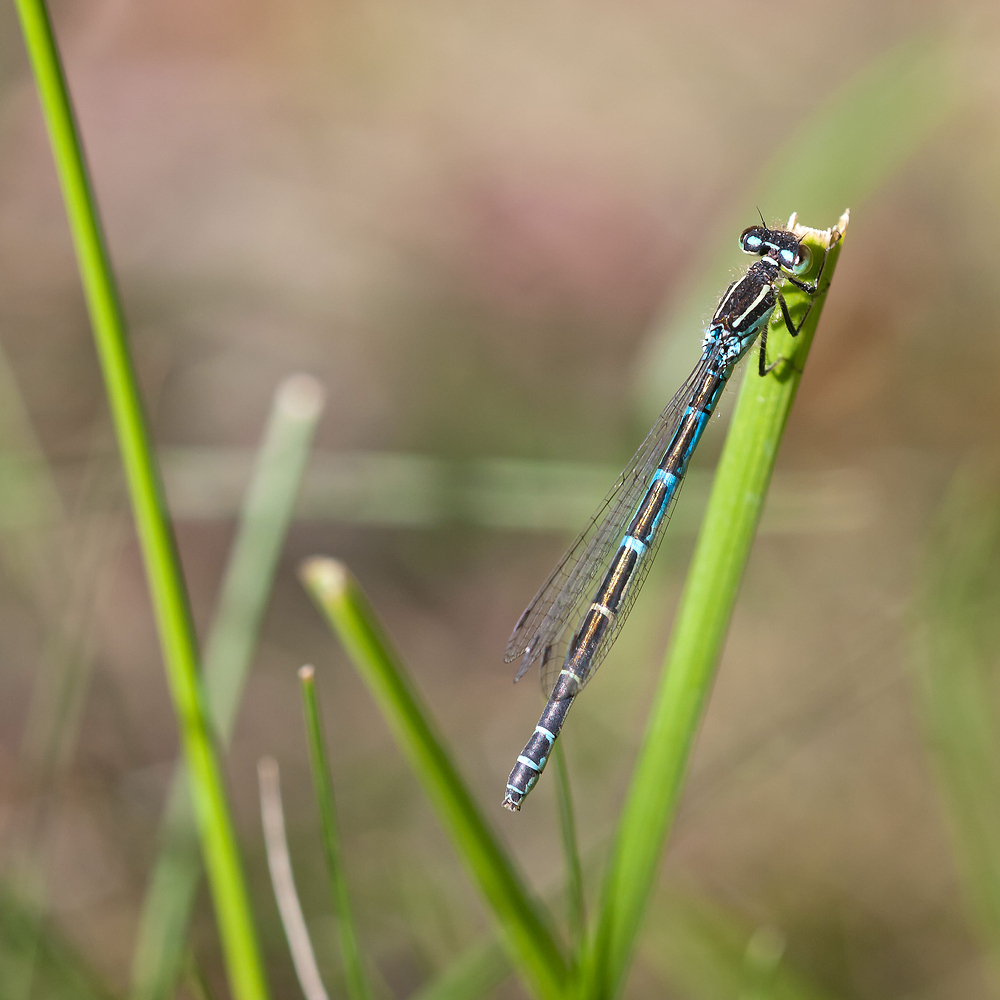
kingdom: Animalia
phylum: Arthropoda
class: Insecta
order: Odonata
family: Coenagrionidae
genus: Coenagrion
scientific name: Coenagrion scitulum
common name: Dainty bluet
